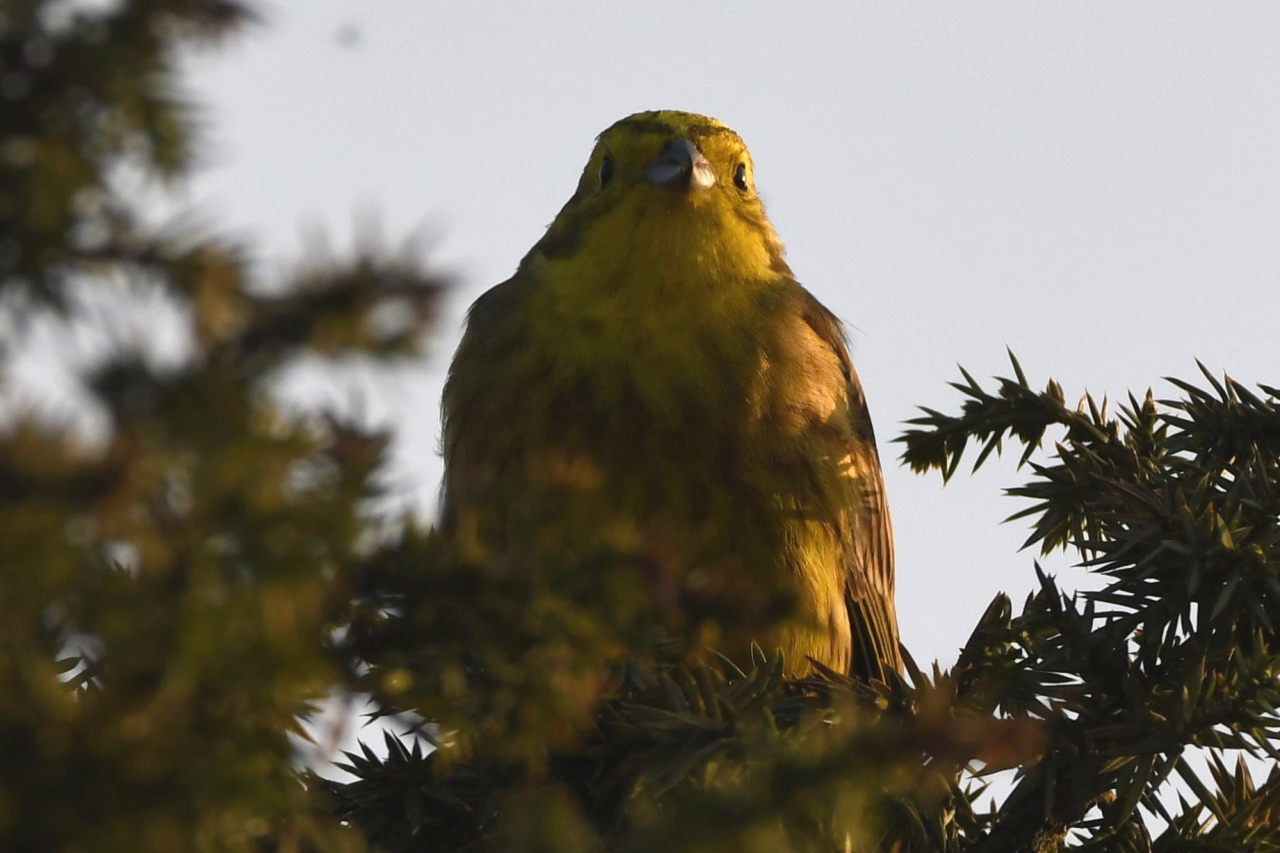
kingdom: Animalia
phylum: Chordata
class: Aves
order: Passeriformes
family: Emberizidae
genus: Emberiza
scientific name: Emberiza citrinella
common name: Yellowhammer
